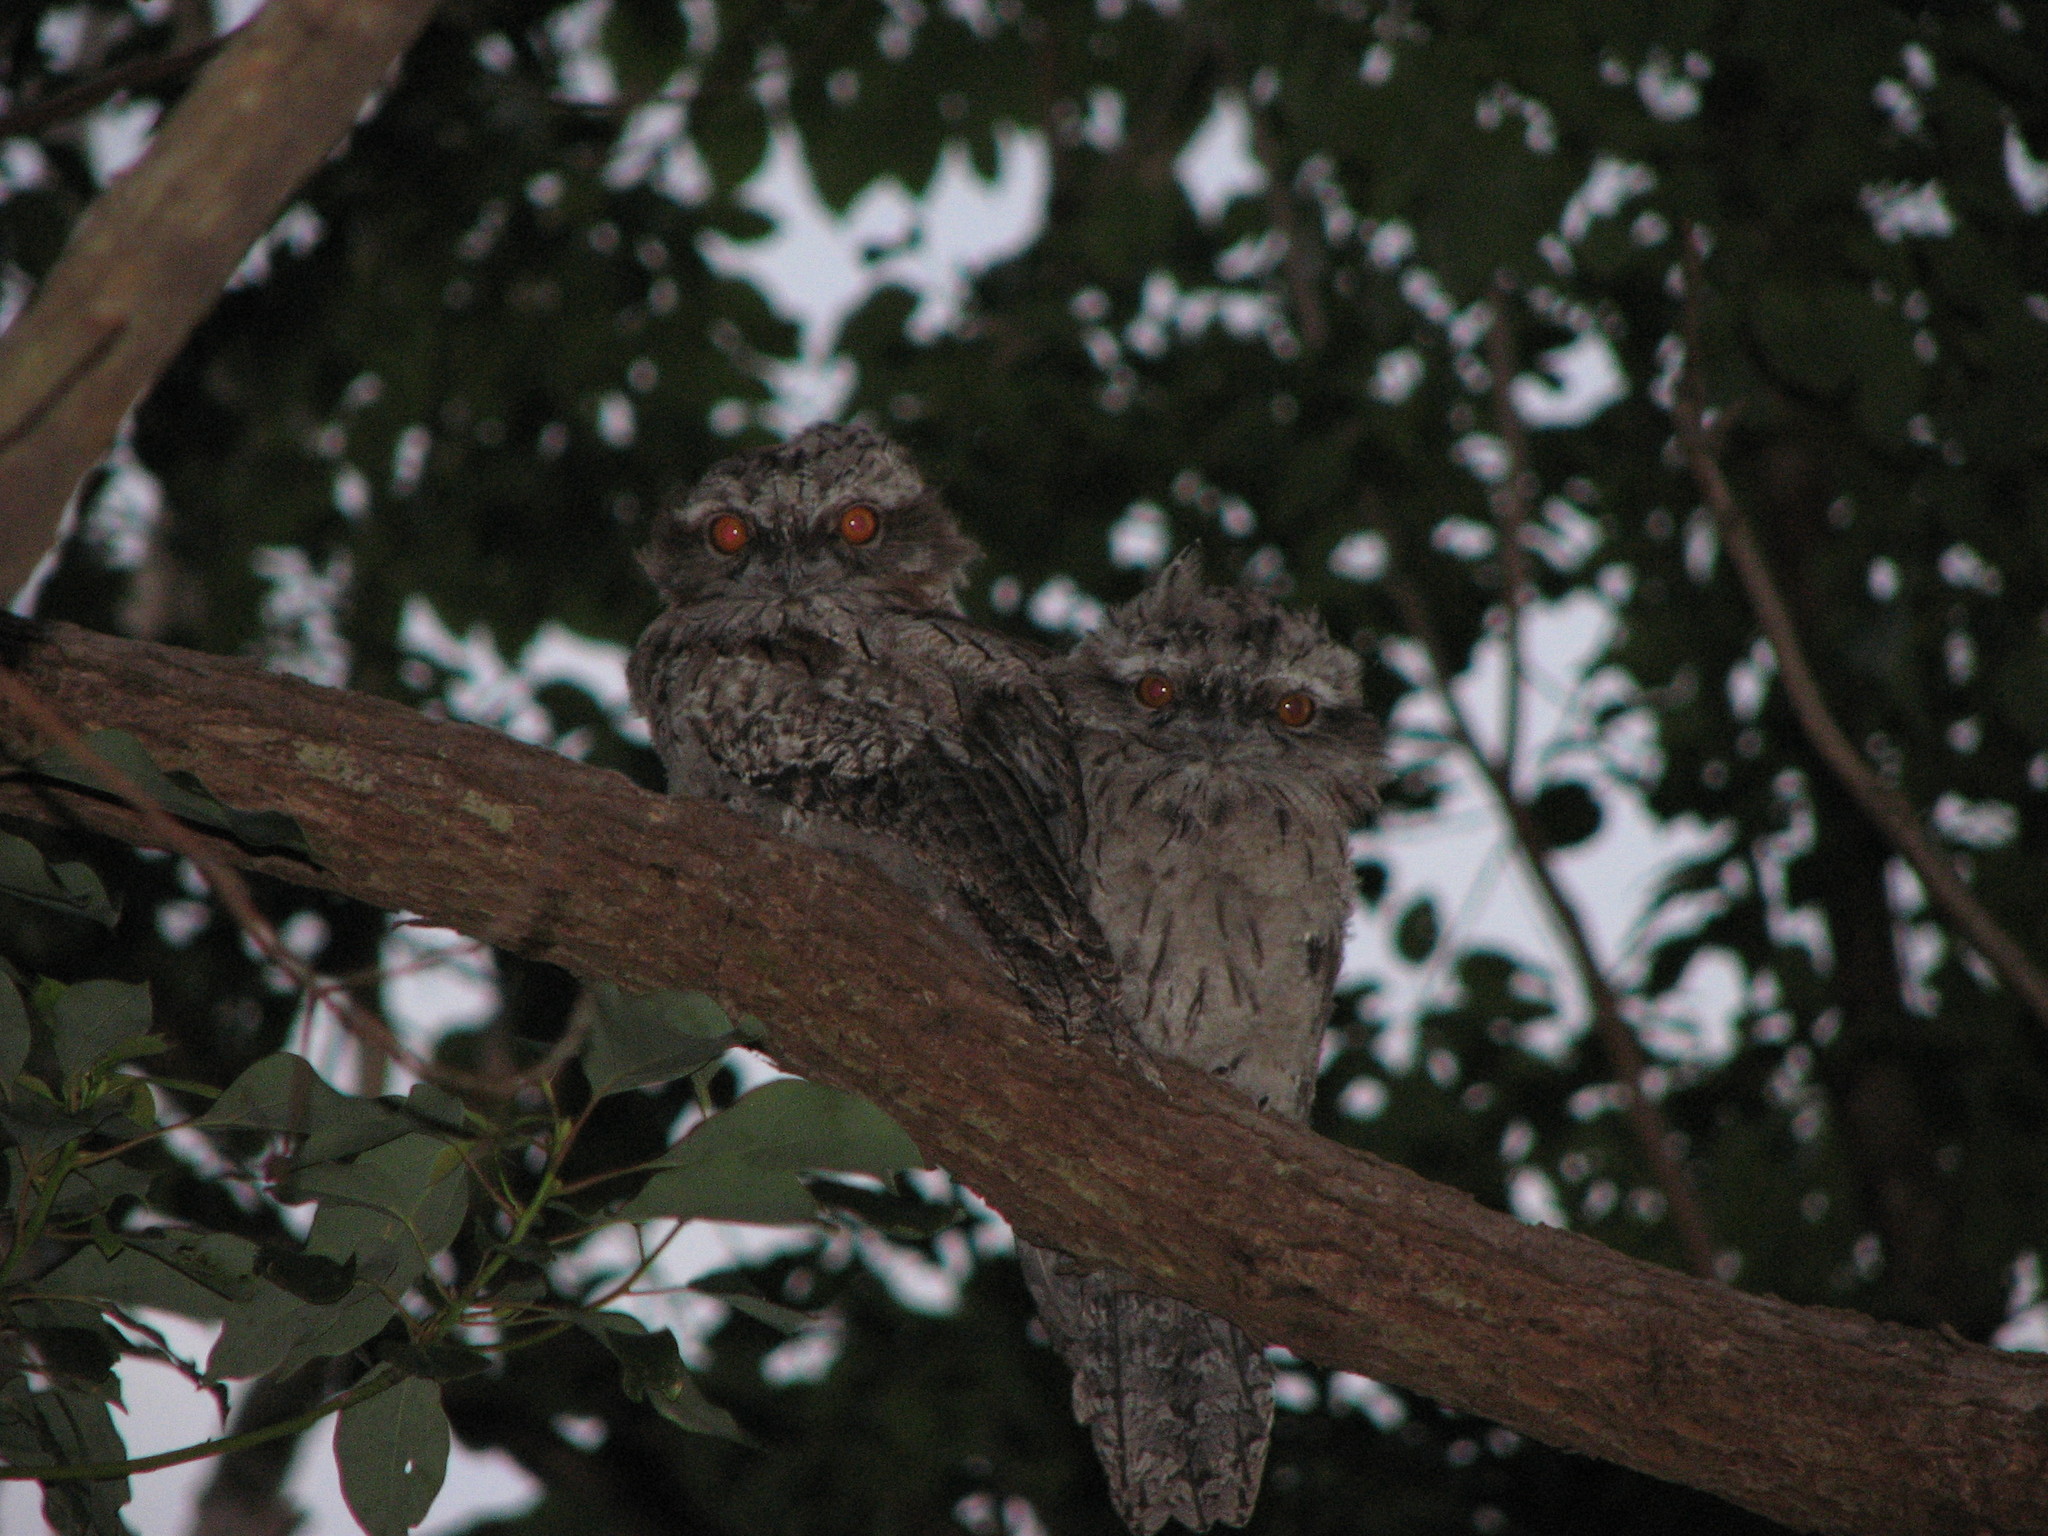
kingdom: Animalia
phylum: Chordata
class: Aves
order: Caprimulgiformes
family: Podargidae
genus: Podargus
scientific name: Podargus strigoides
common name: Tawny frogmouth
